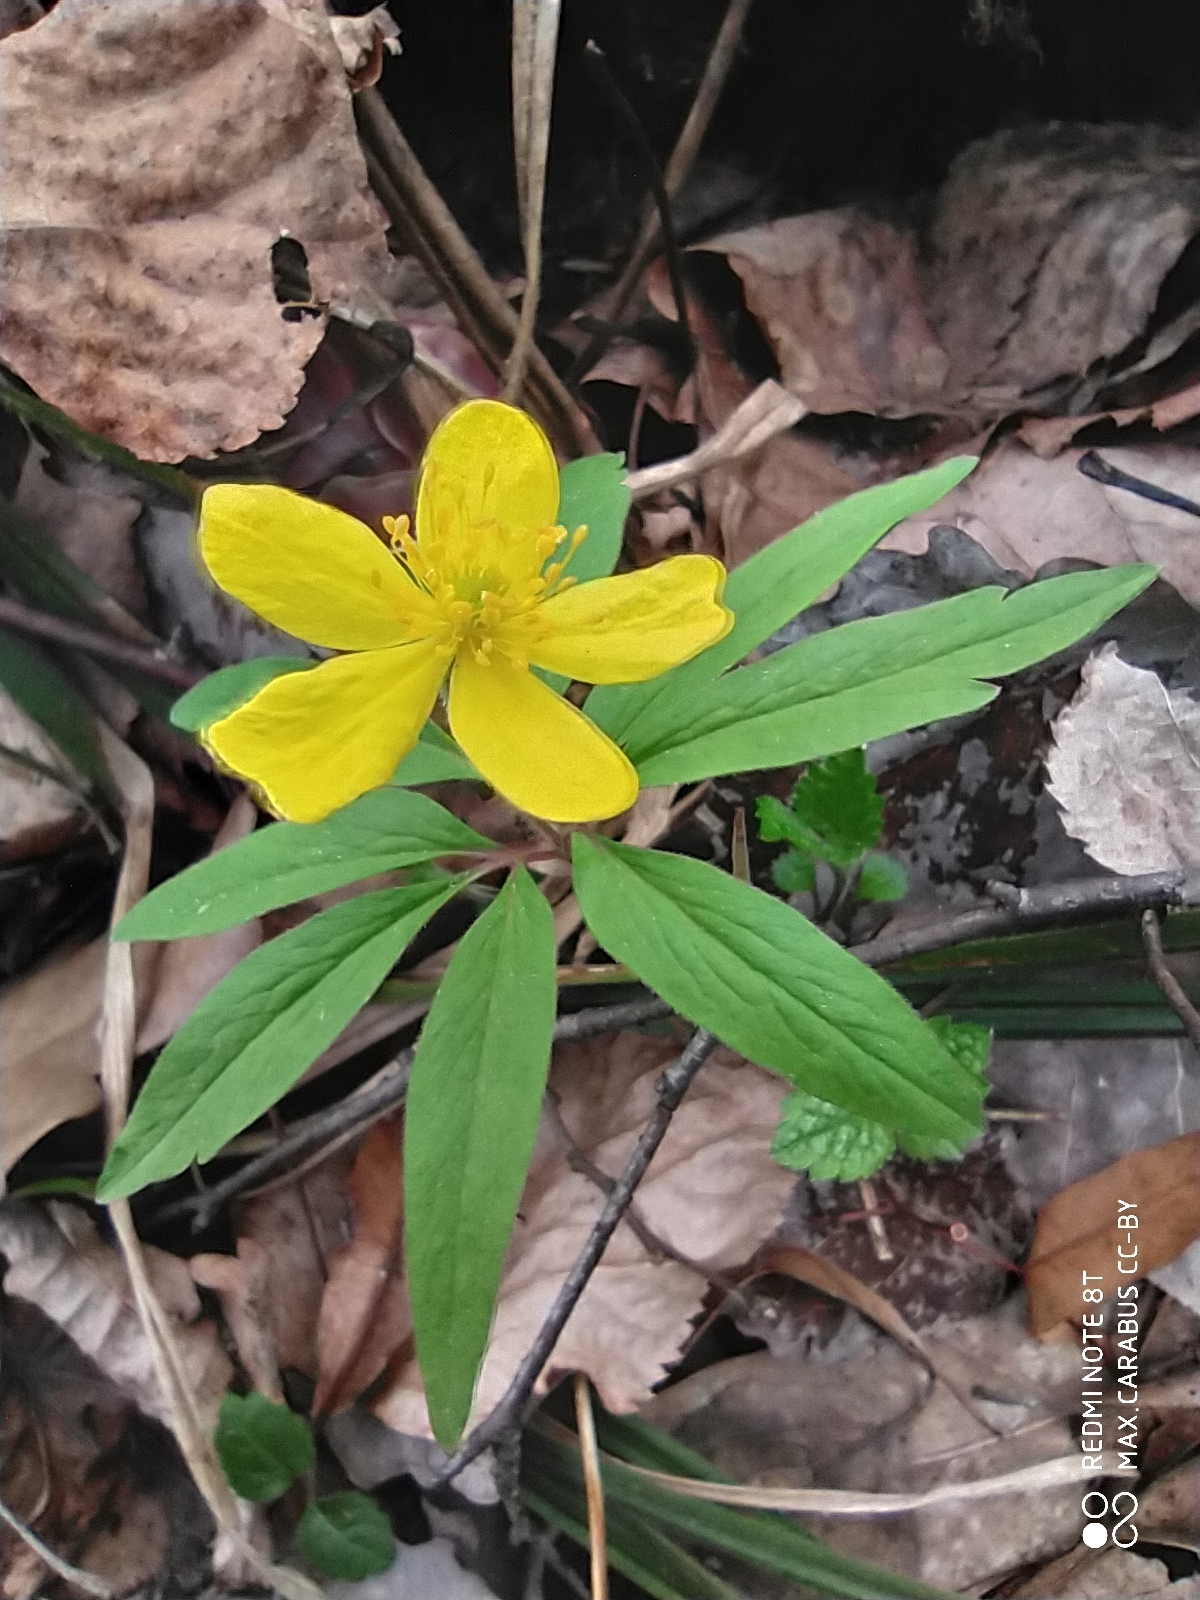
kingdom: Plantae
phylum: Tracheophyta
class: Magnoliopsida
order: Ranunculales
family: Ranunculaceae
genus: Anemone
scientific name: Anemone ranunculoides
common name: Yellow anemone
